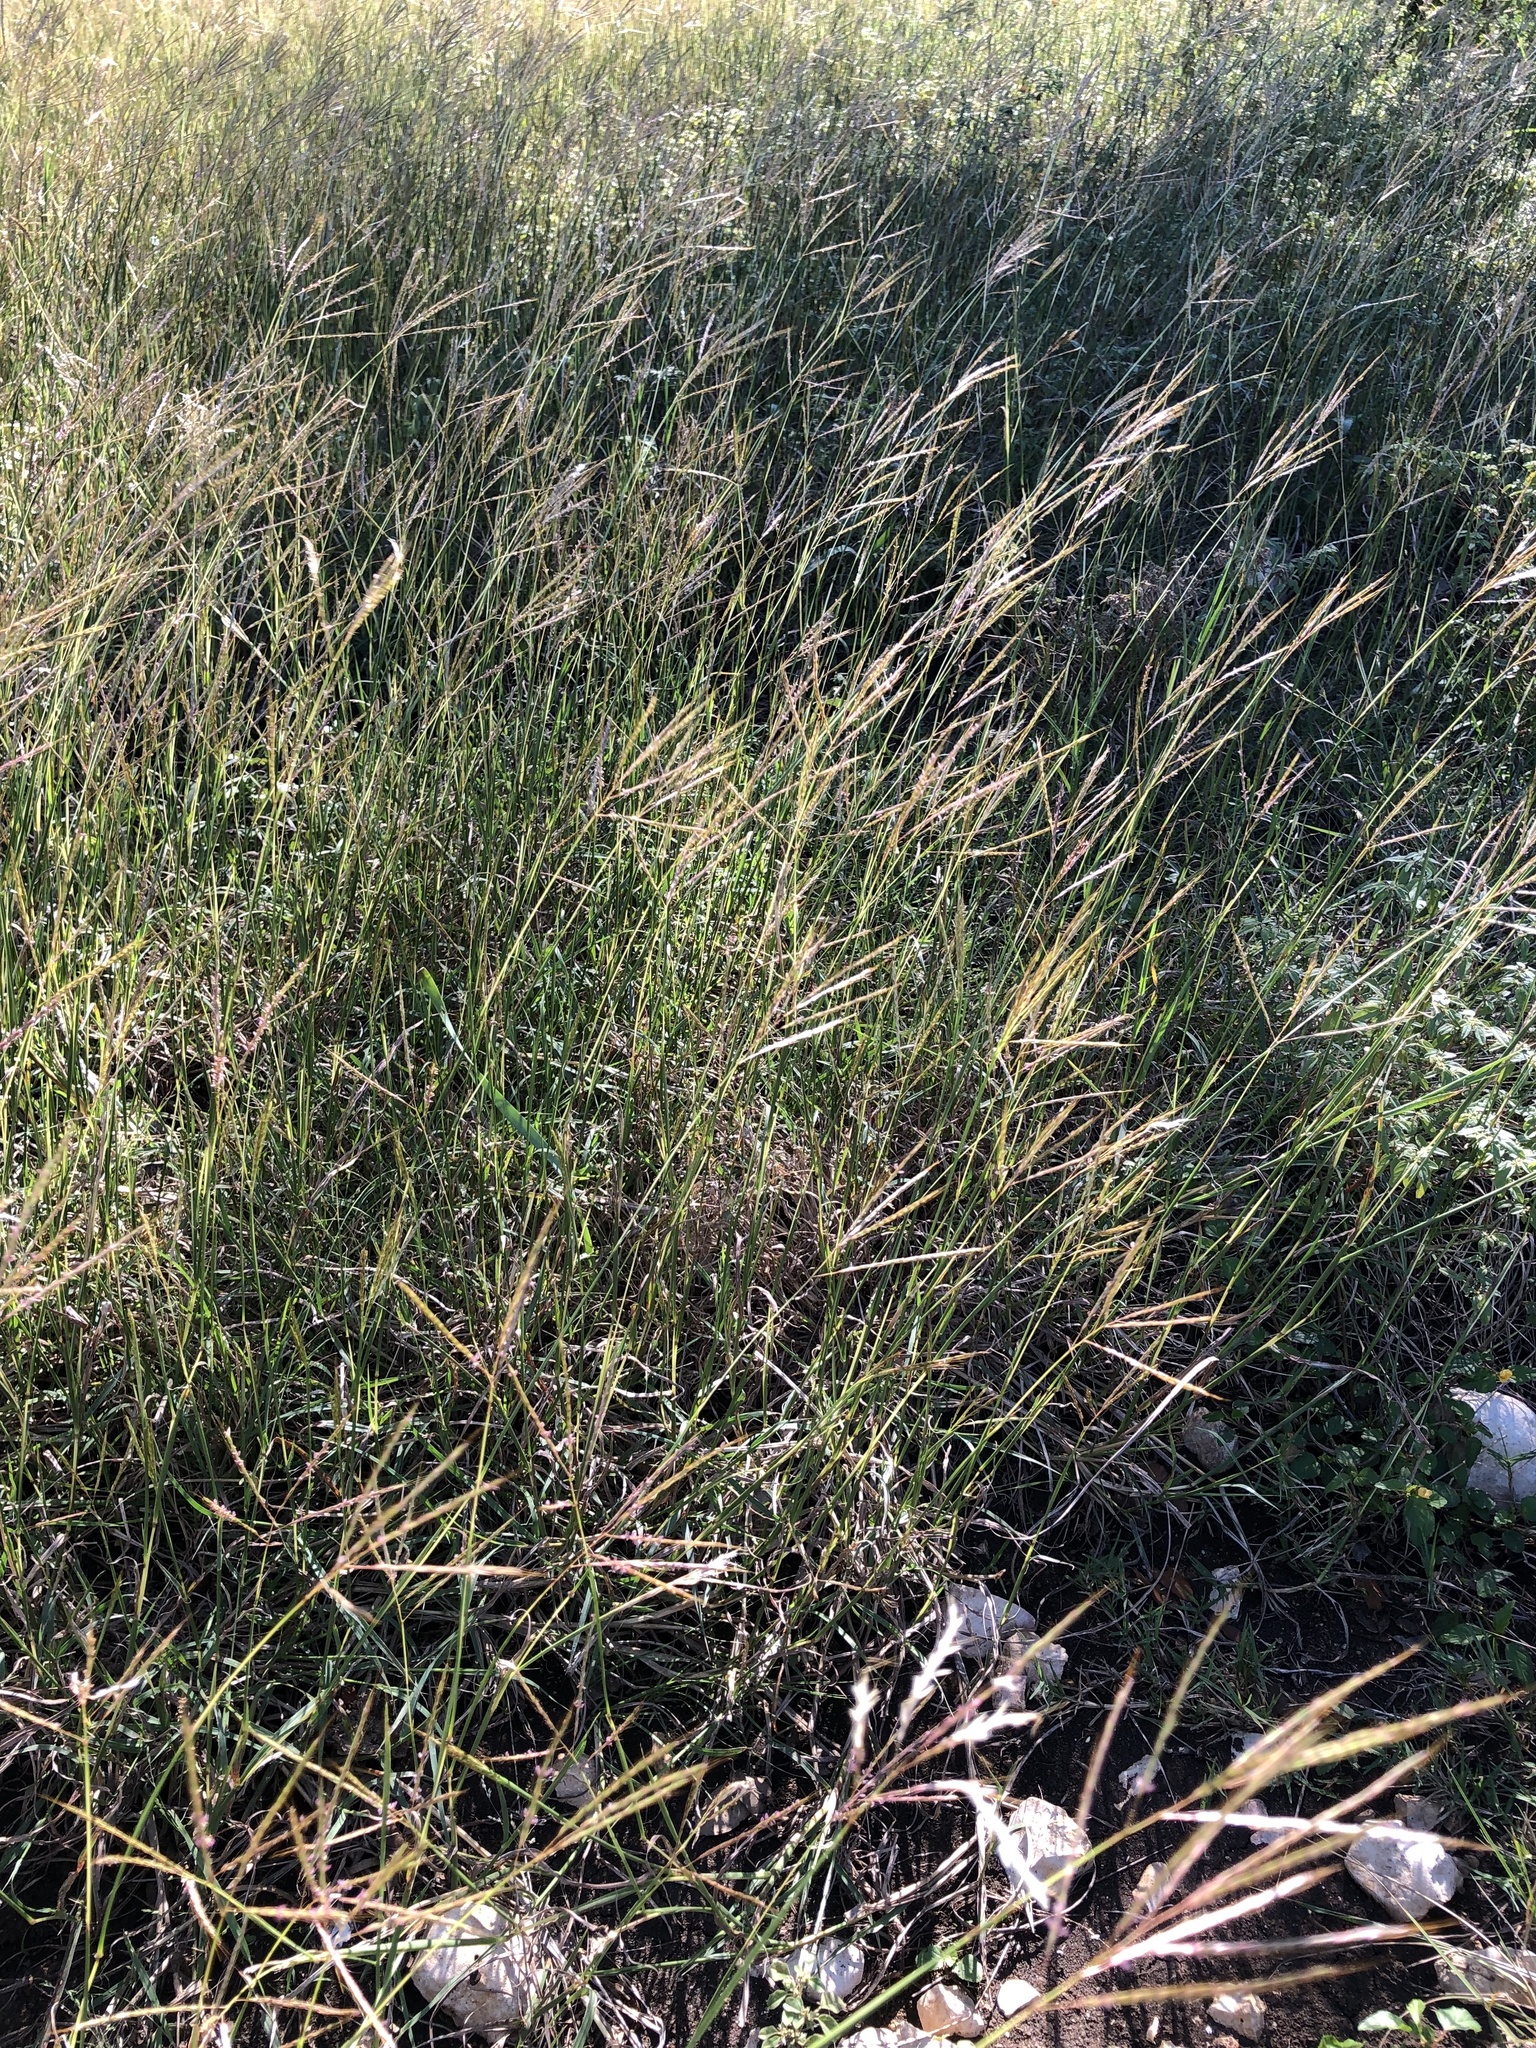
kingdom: Plantae
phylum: Tracheophyta
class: Liliopsida
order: Poales
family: Poaceae
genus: Bothriochloa
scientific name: Bothriochloa ischaemum
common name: Yellow bluestem
